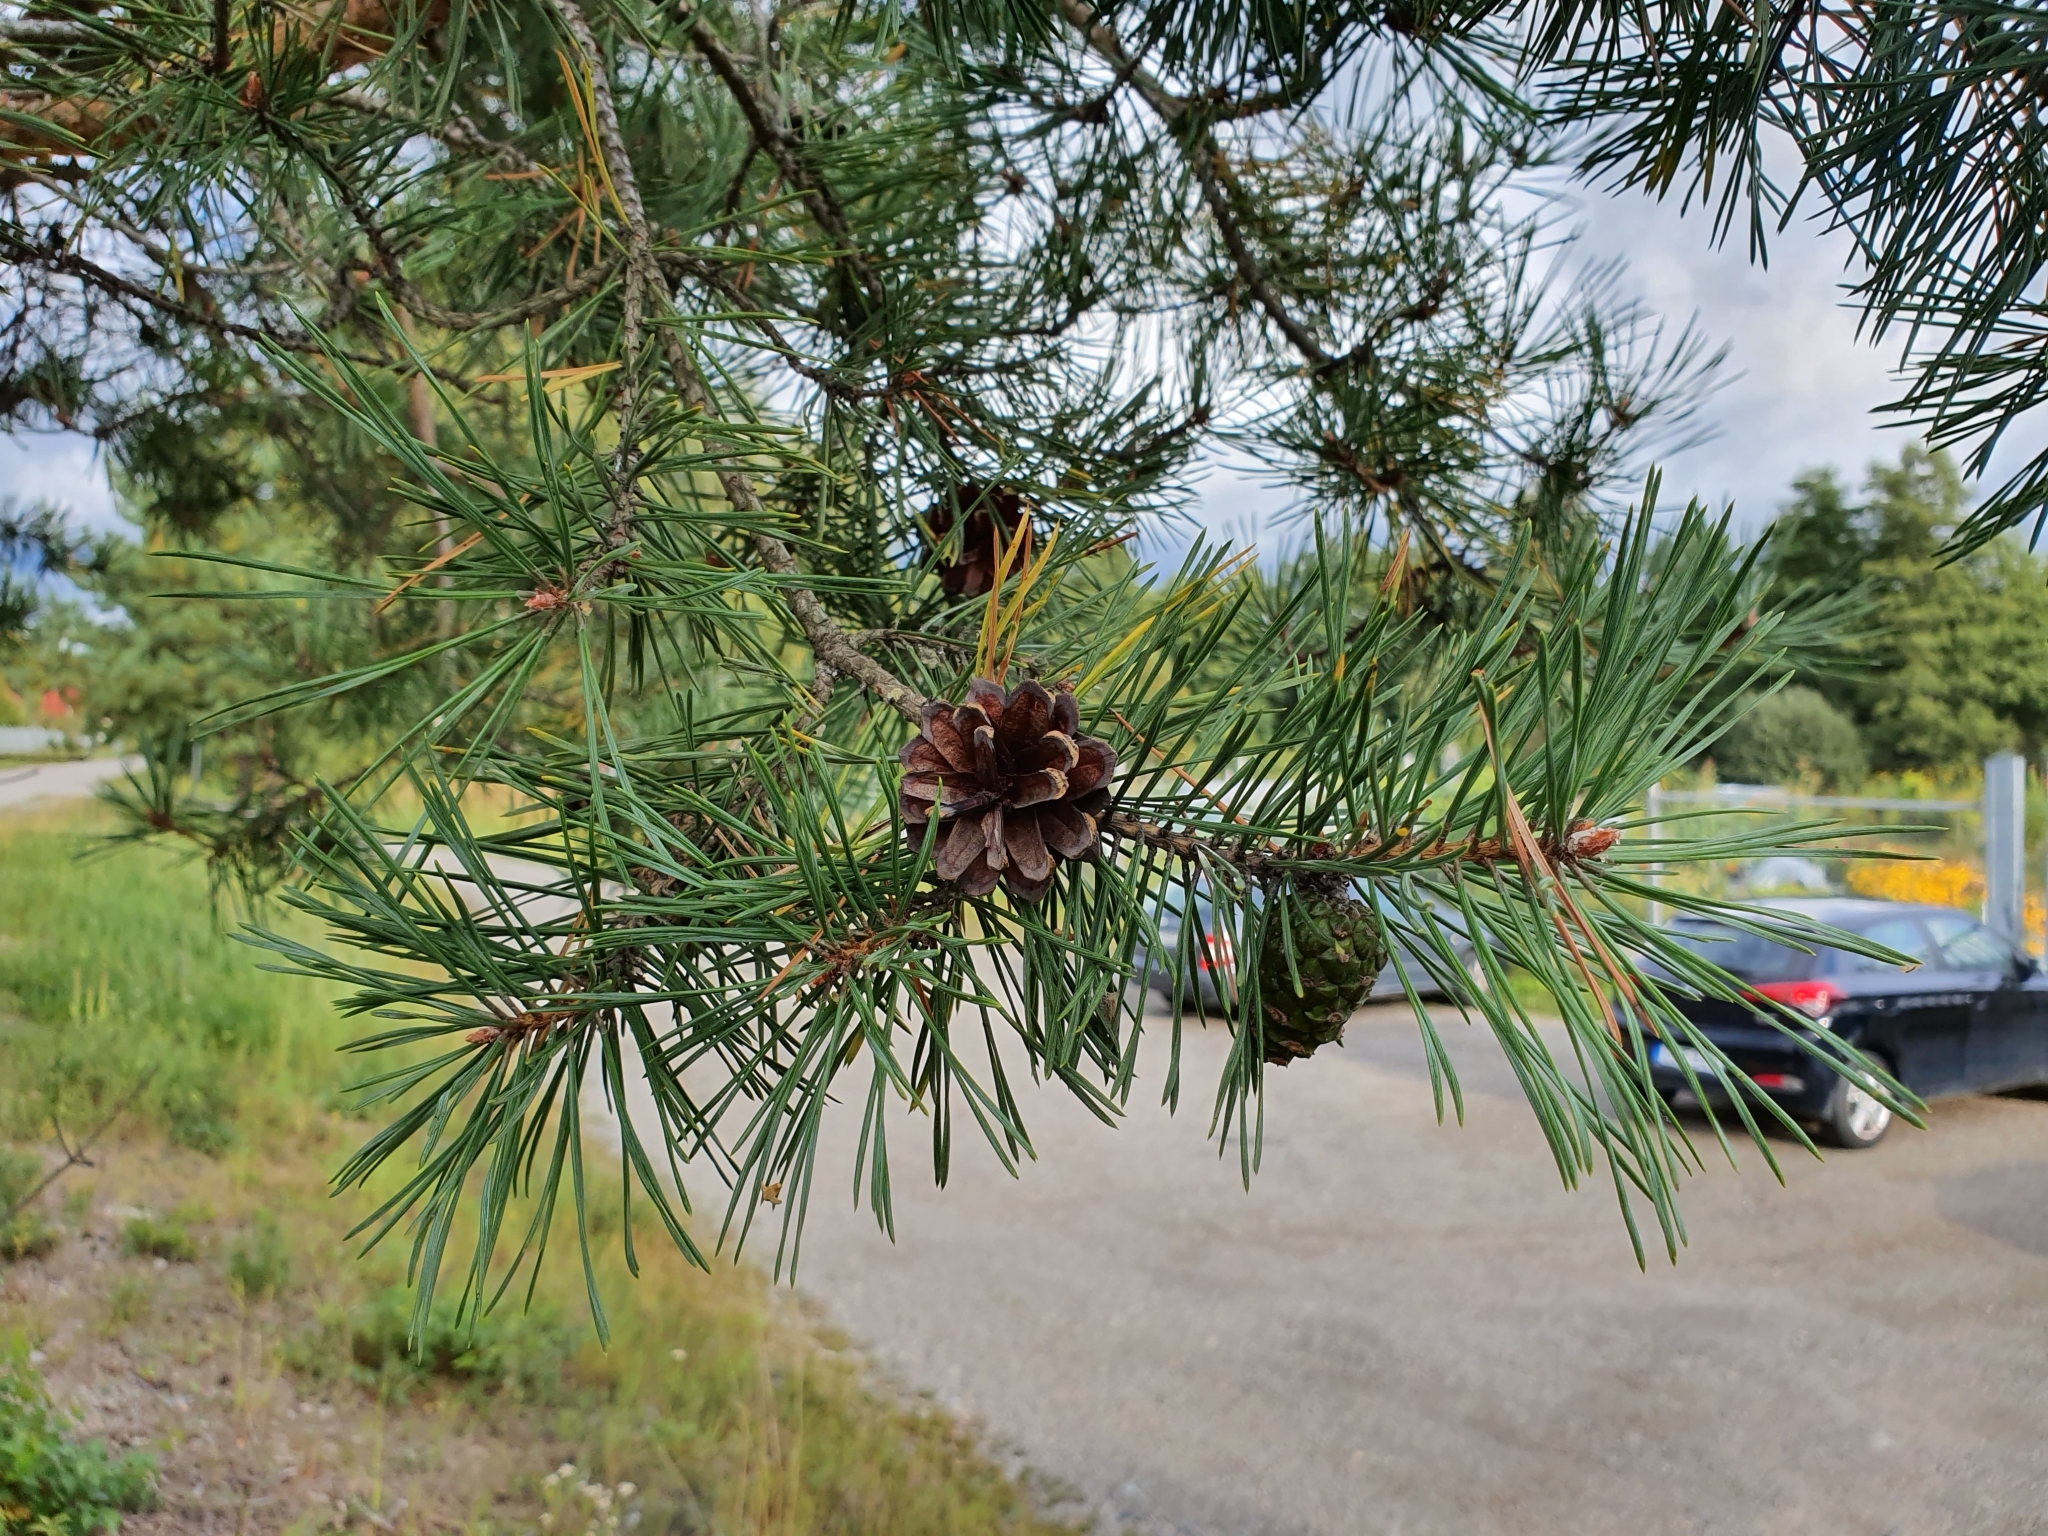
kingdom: Plantae
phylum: Tracheophyta
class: Pinopsida
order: Pinales
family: Pinaceae
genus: Pinus
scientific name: Pinus sylvestris
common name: Scots pine
